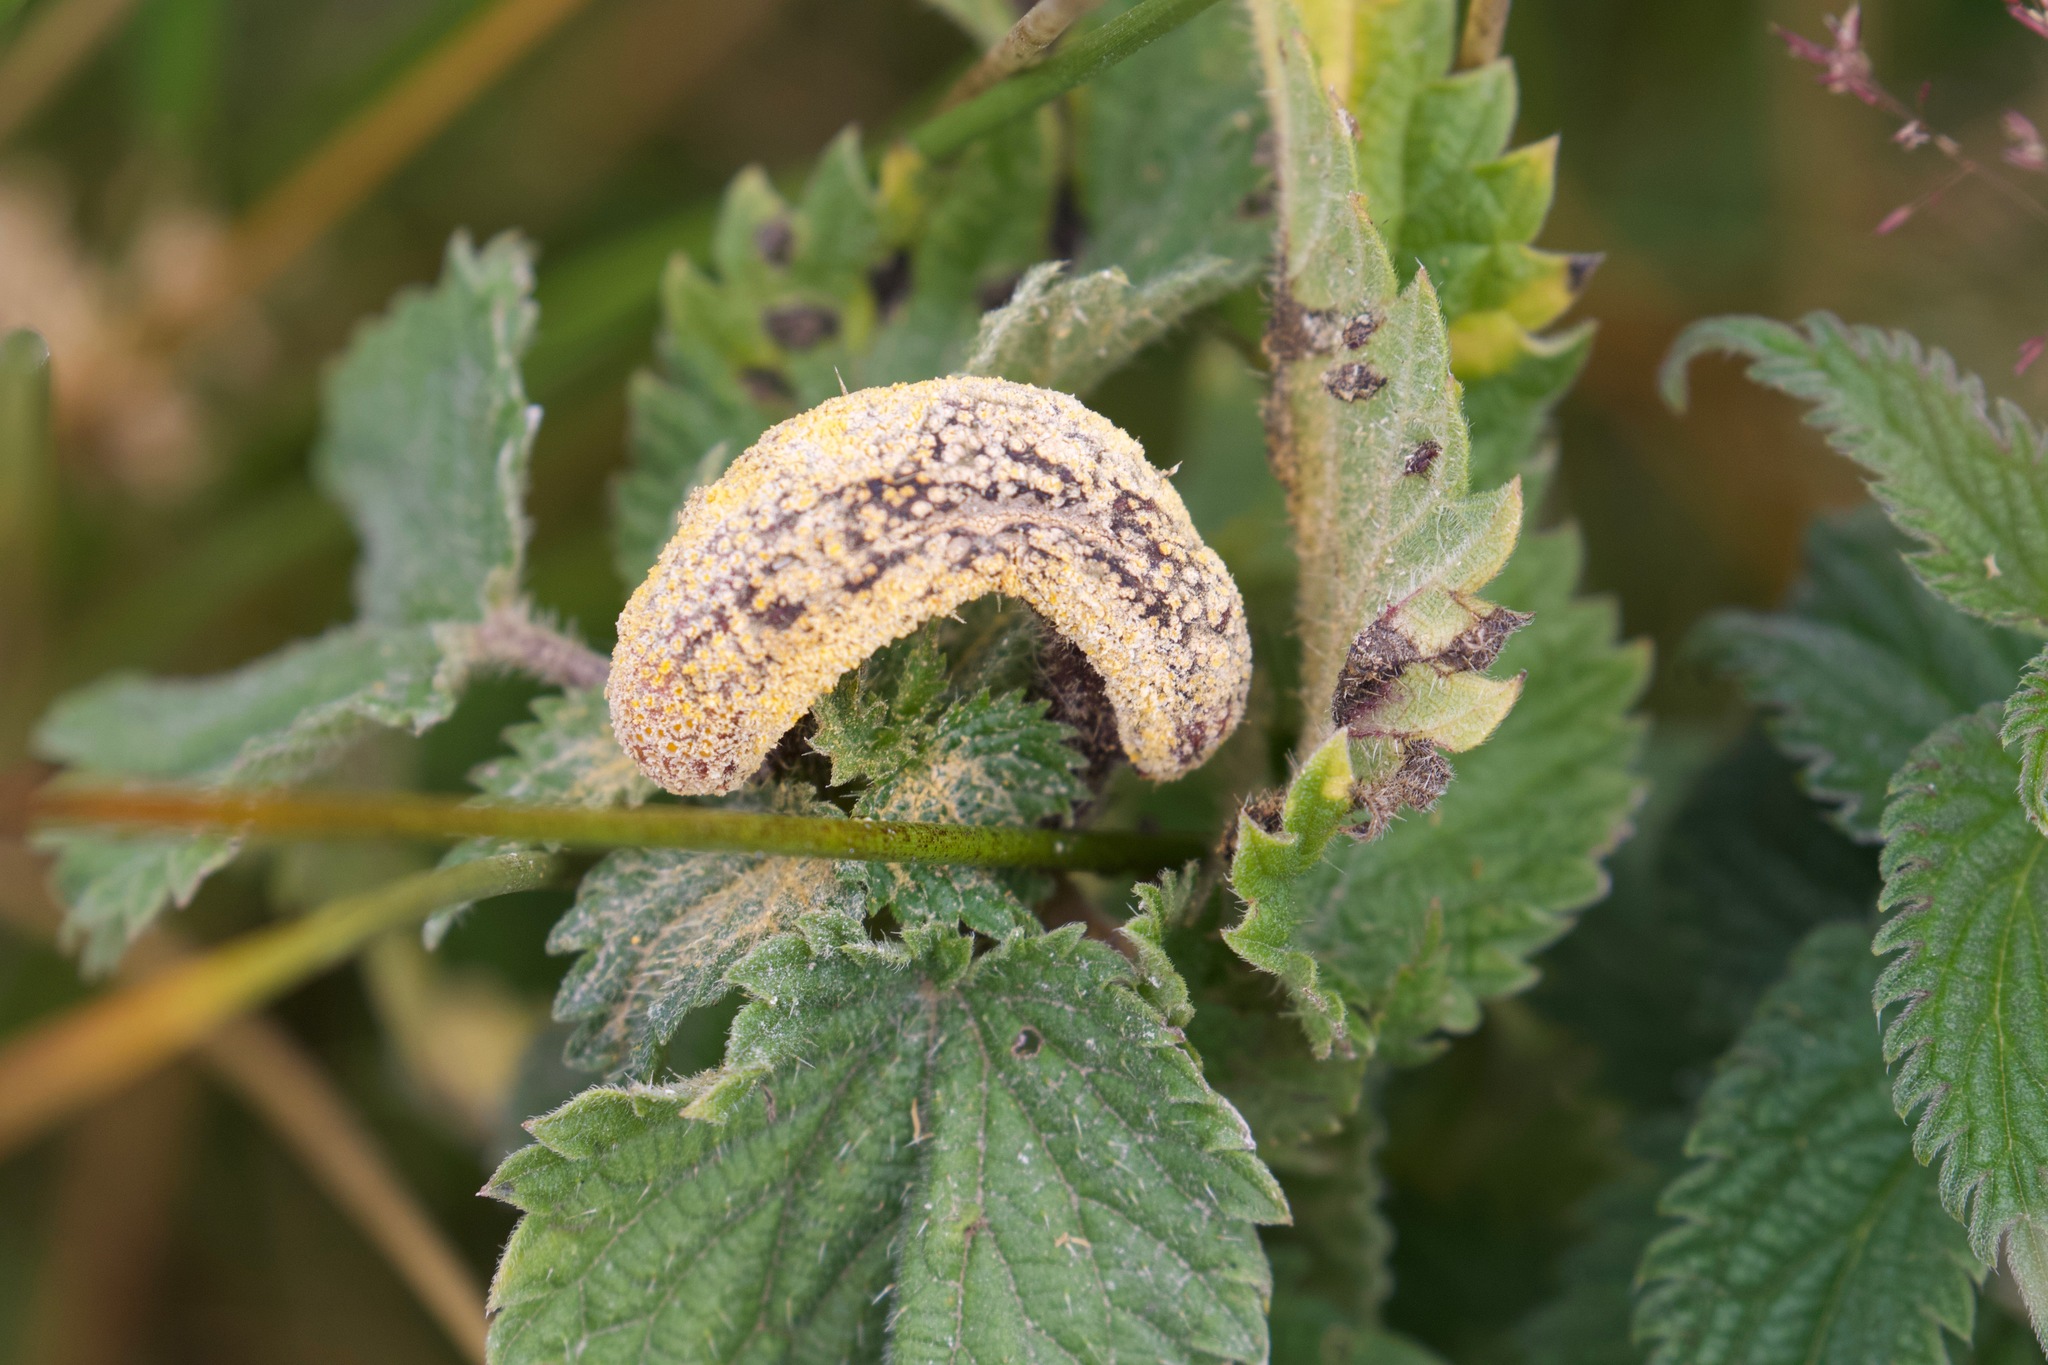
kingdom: Fungi
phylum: Basidiomycota
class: Pucciniomycetes
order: Pucciniales
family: Pucciniaceae
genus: Puccinia
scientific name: Puccinia urticata
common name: Nettle clustercup rust fungus
